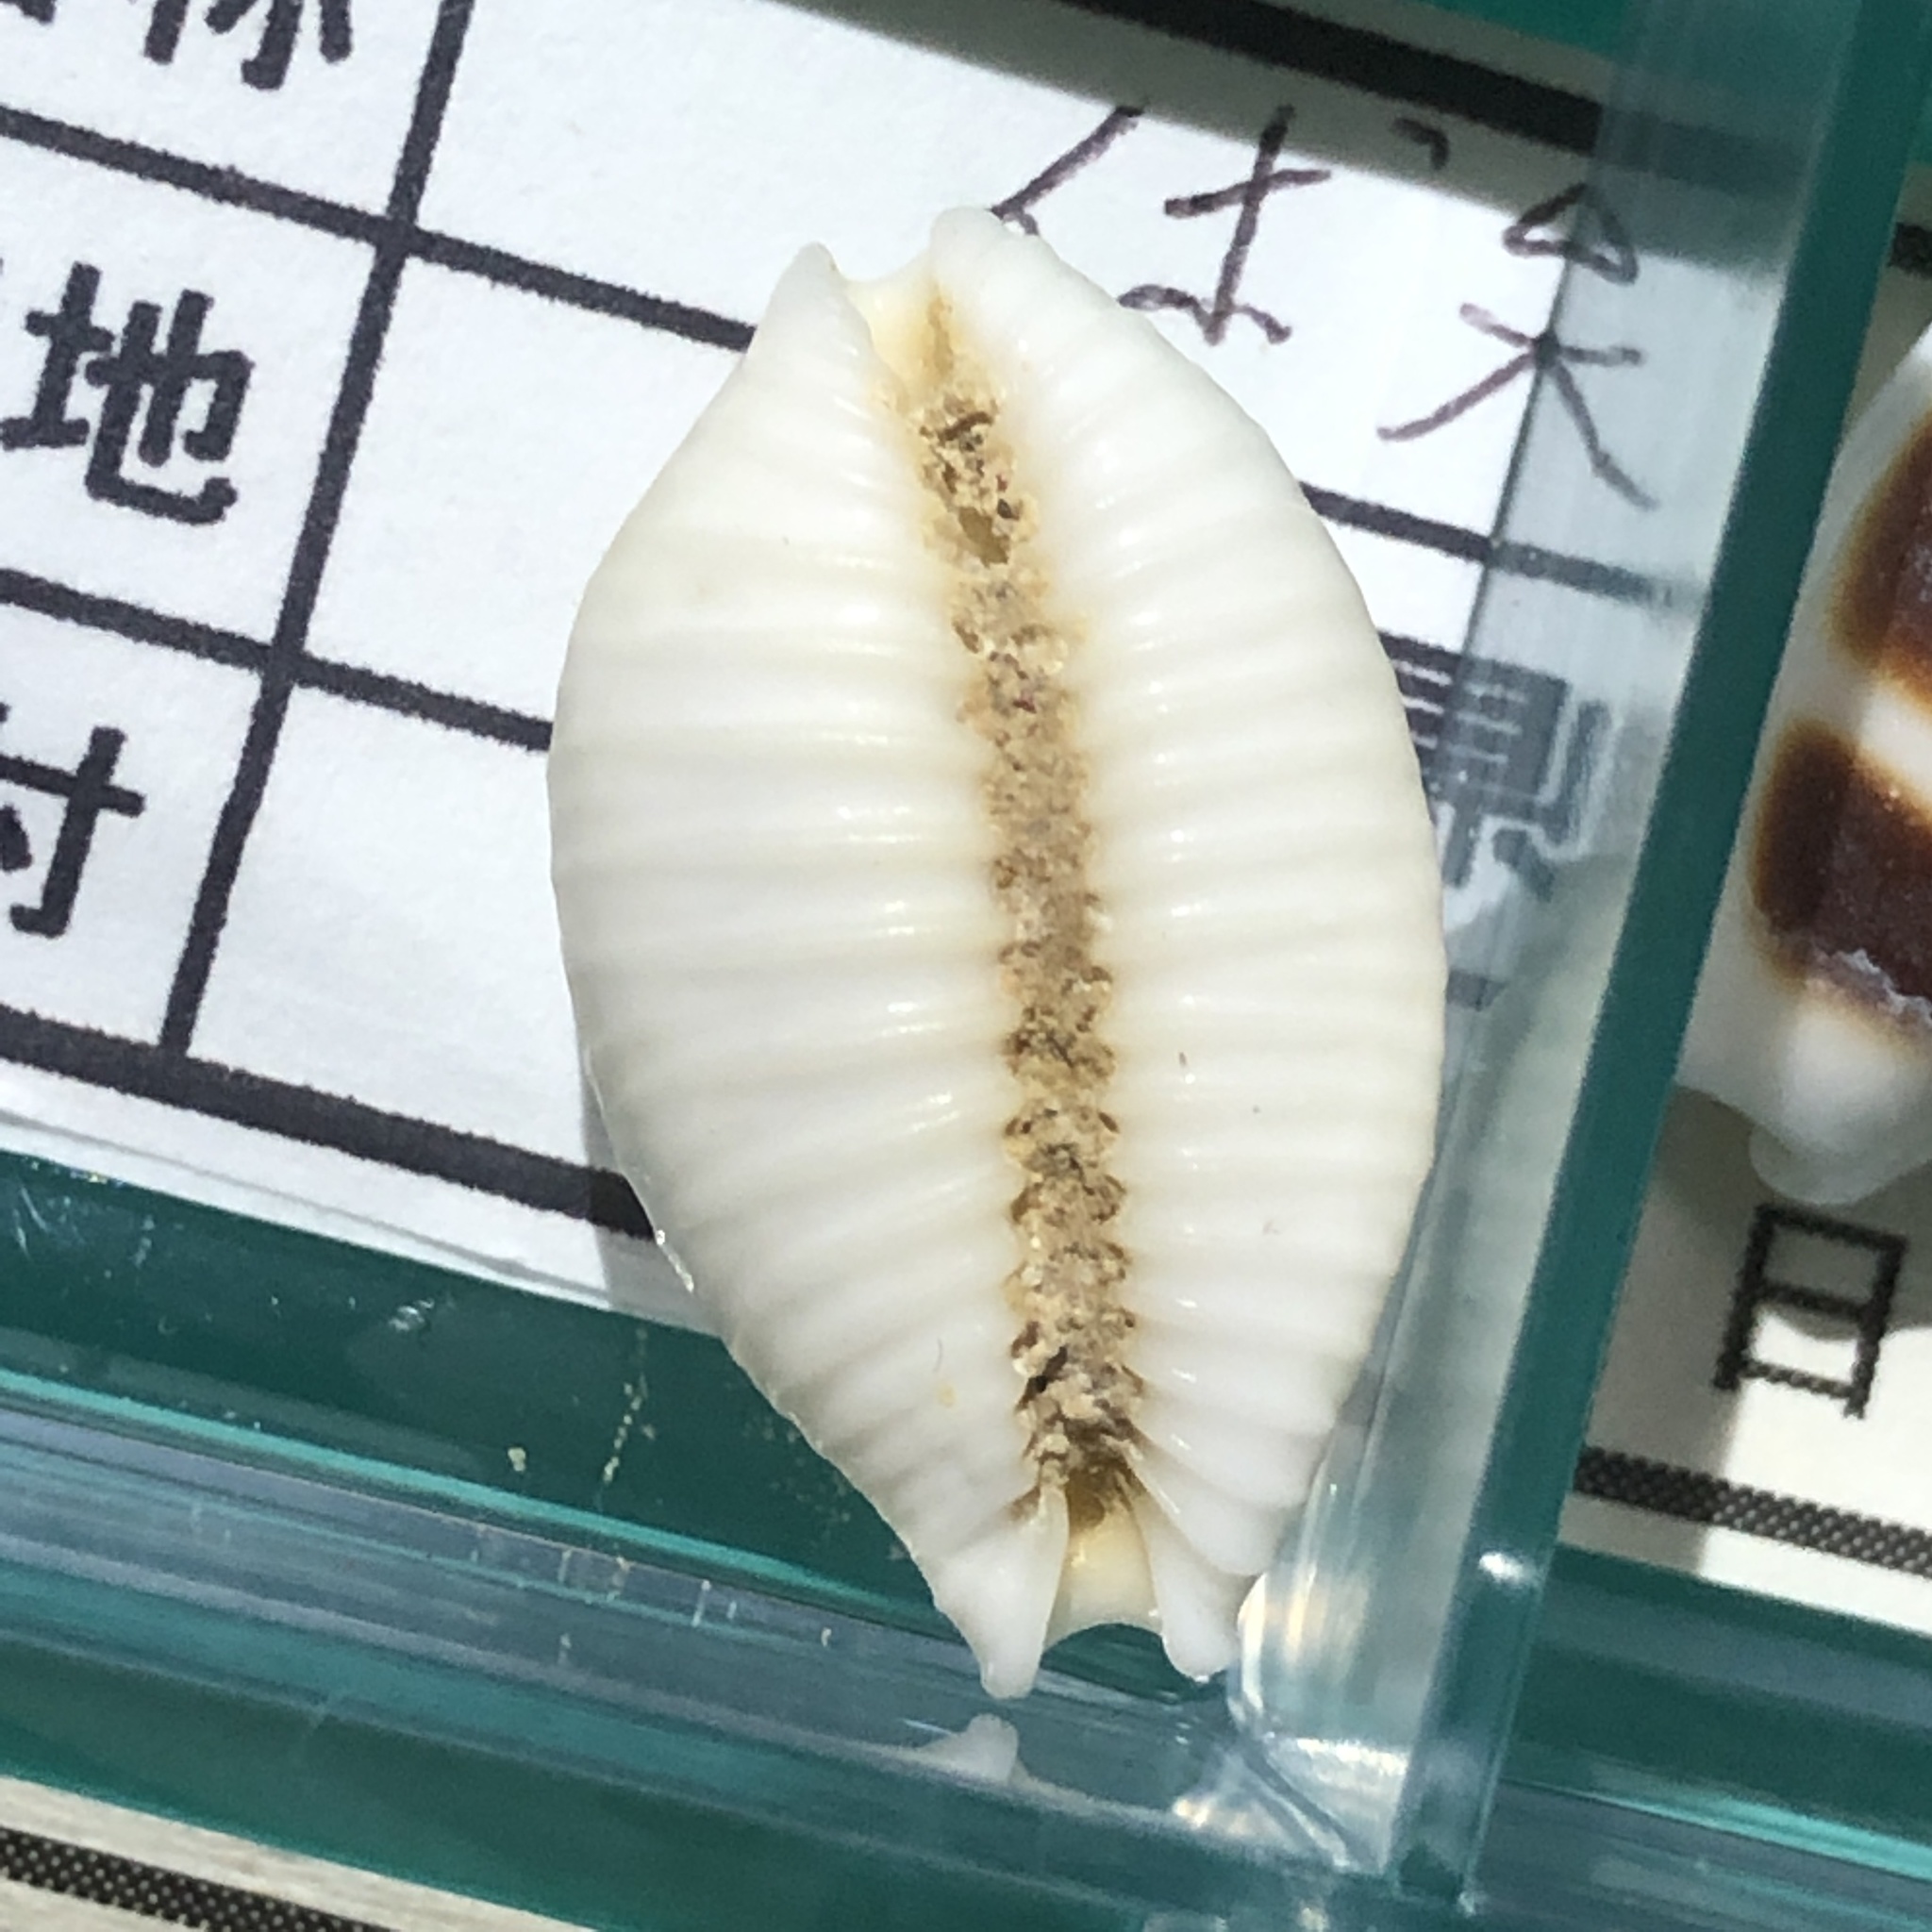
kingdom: Animalia
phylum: Mollusca
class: Gastropoda
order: Littorinimorpha
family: Cypraeidae
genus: Nucleolaria
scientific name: Nucleolaria nucleus
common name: Kernel cowry
